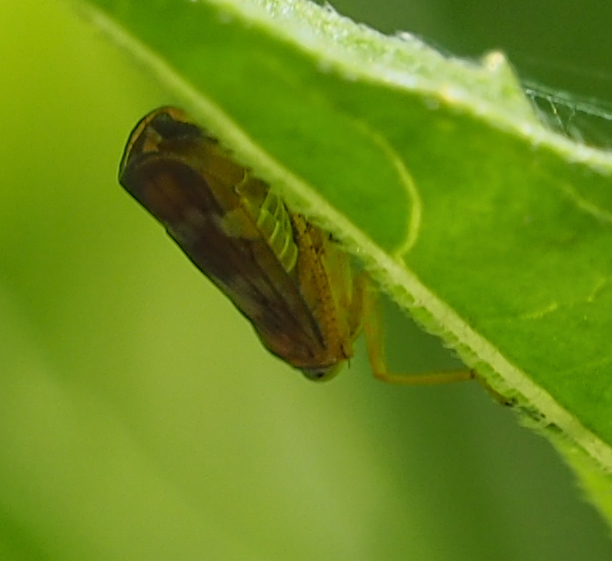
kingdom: Animalia
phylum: Arthropoda
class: Insecta
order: Hemiptera
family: Cicadellidae
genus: Jikradia
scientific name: Jikradia olitoria
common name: Coppery leafhopper
